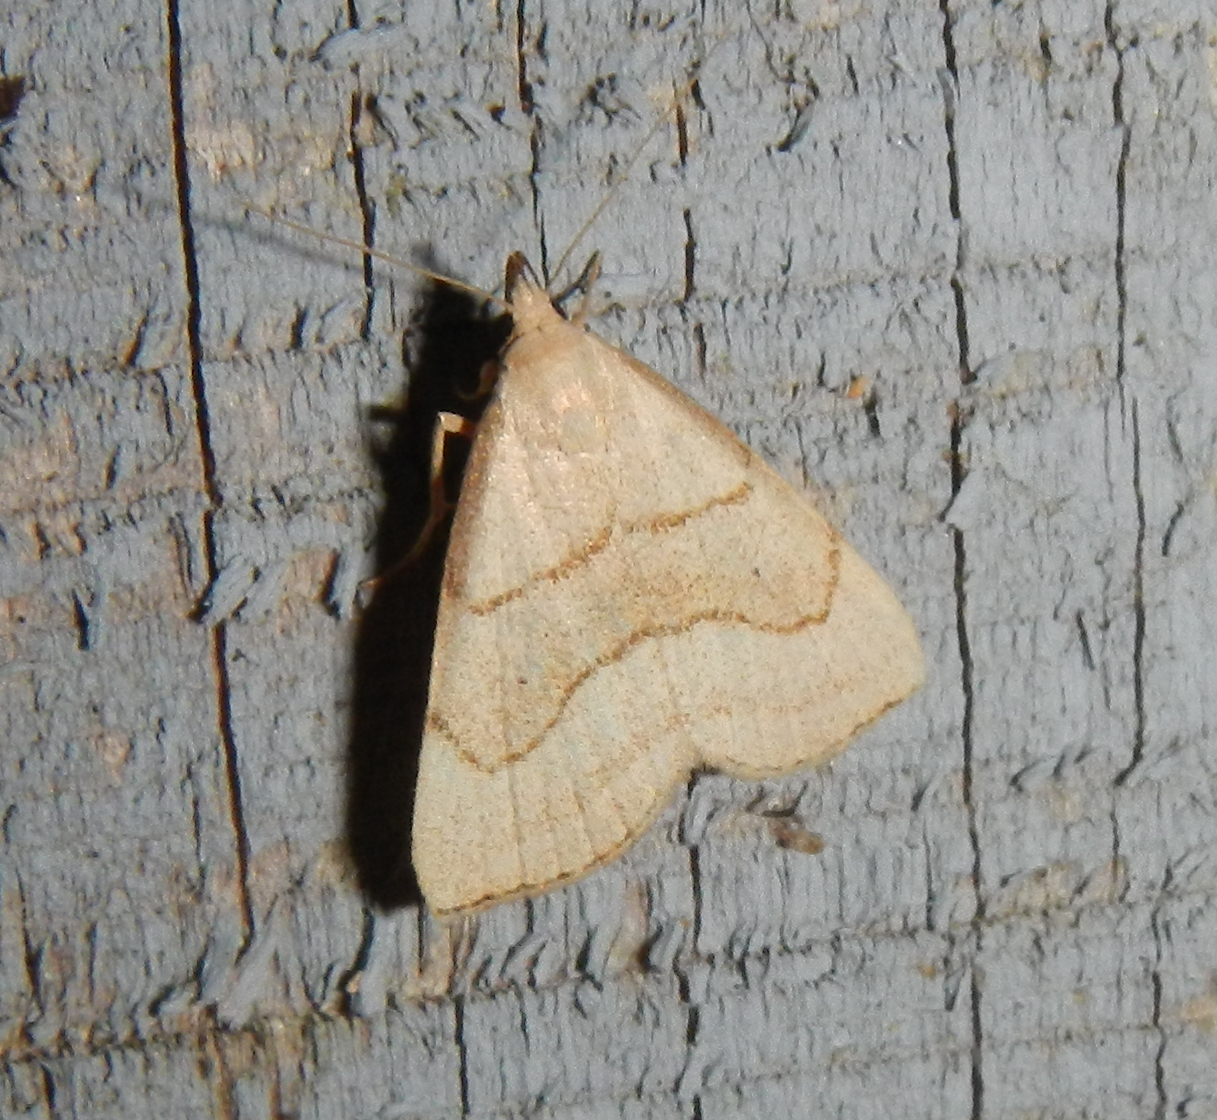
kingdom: Animalia
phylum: Arthropoda
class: Insecta
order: Lepidoptera
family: Erebidae
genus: Macrochilo
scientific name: Macrochilo litophora
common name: Brown-lined owlet
